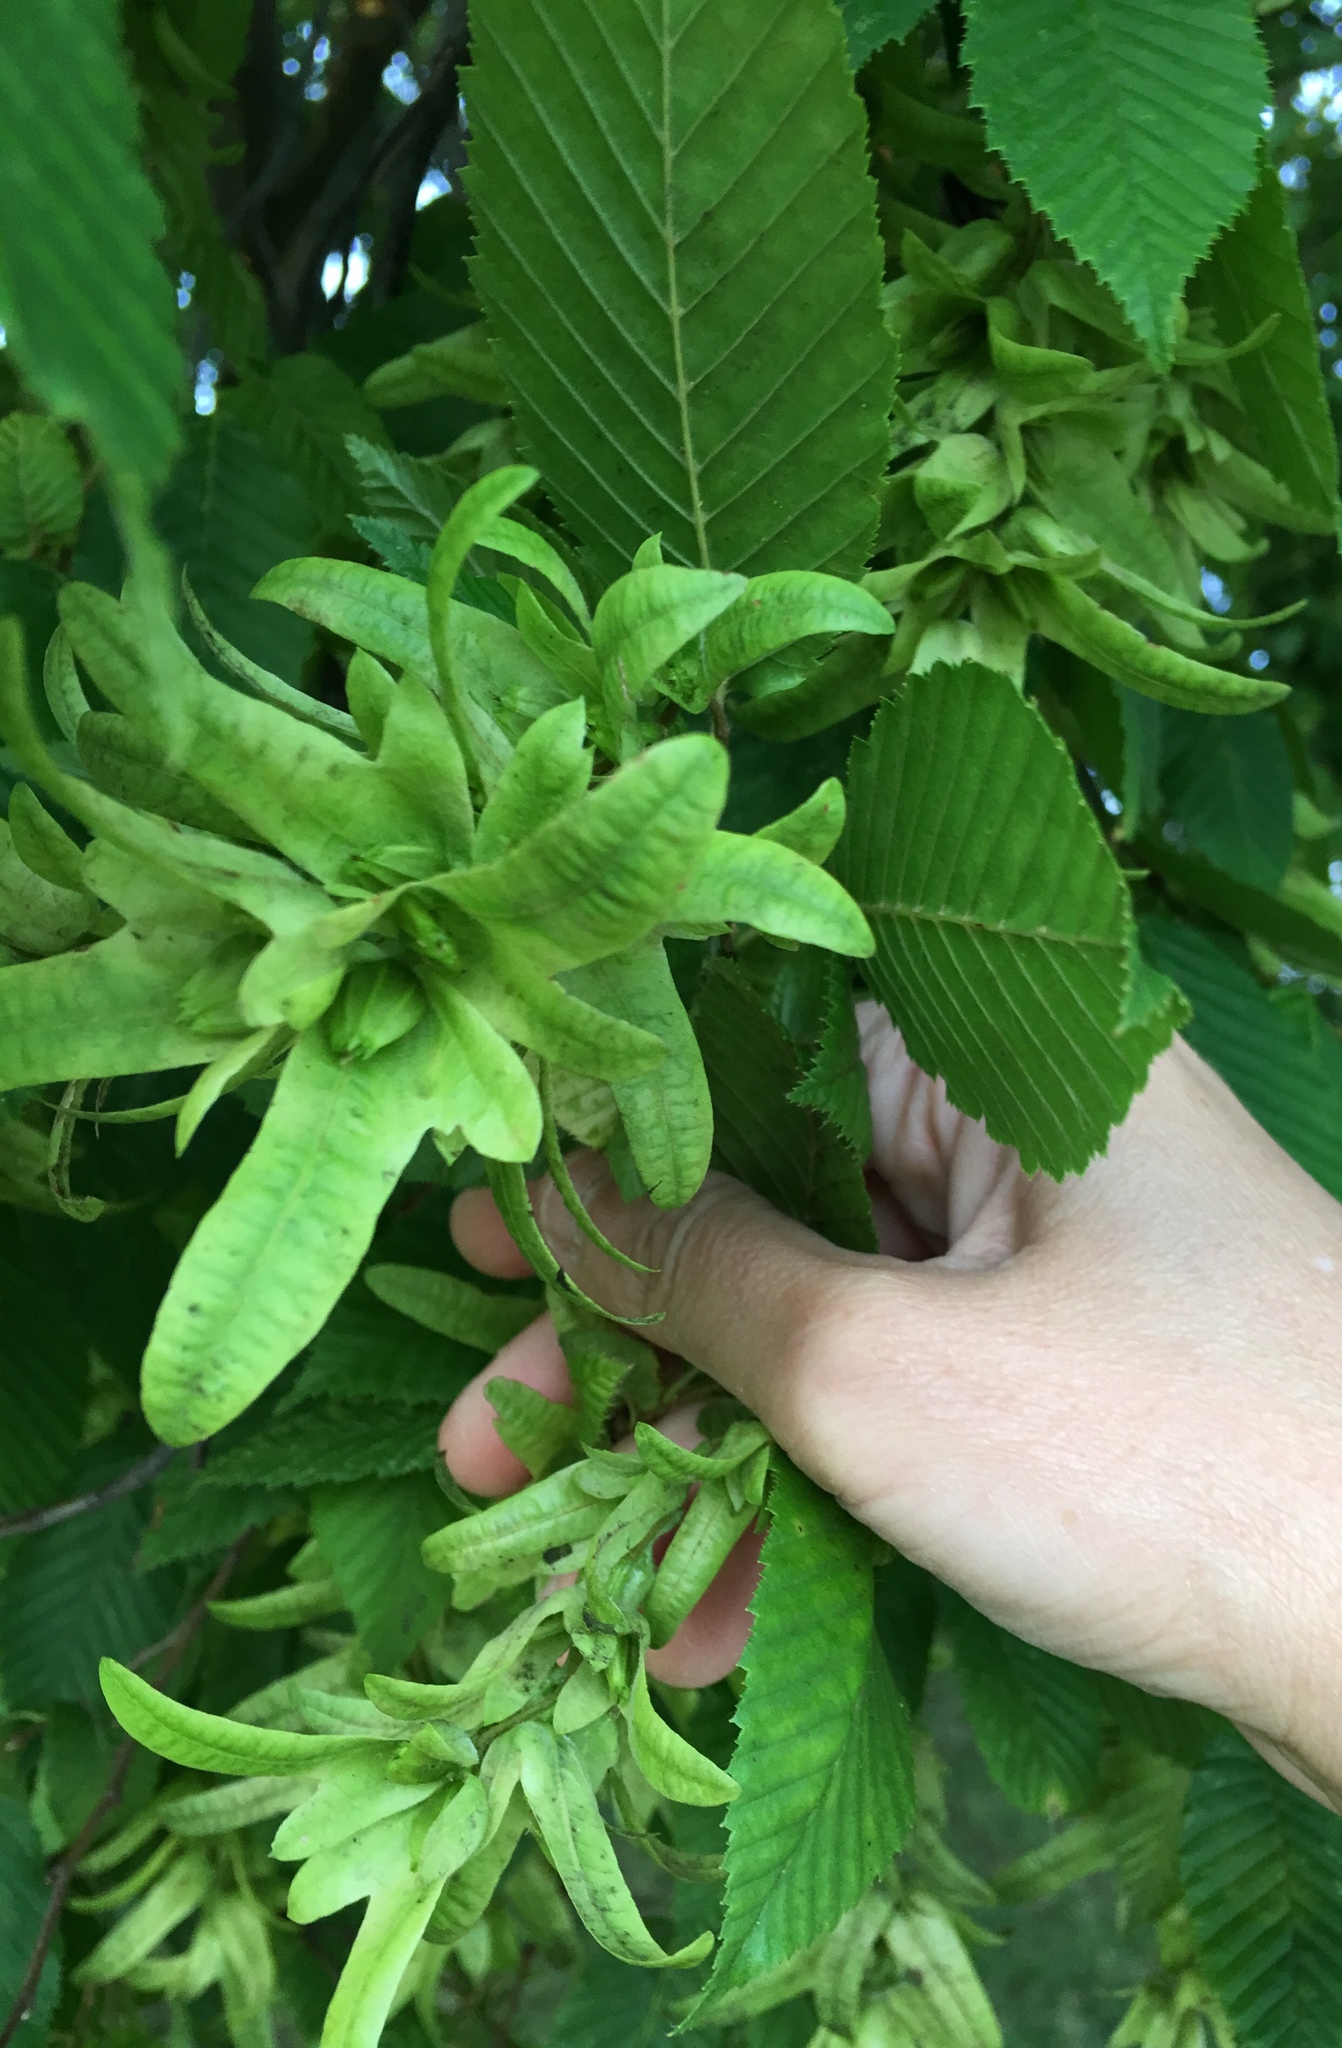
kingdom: Plantae
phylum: Tracheophyta
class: Magnoliopsida
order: Fagales
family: Betulaceae
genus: Carpinus
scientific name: Carpinus betulus
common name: Hornbeam
